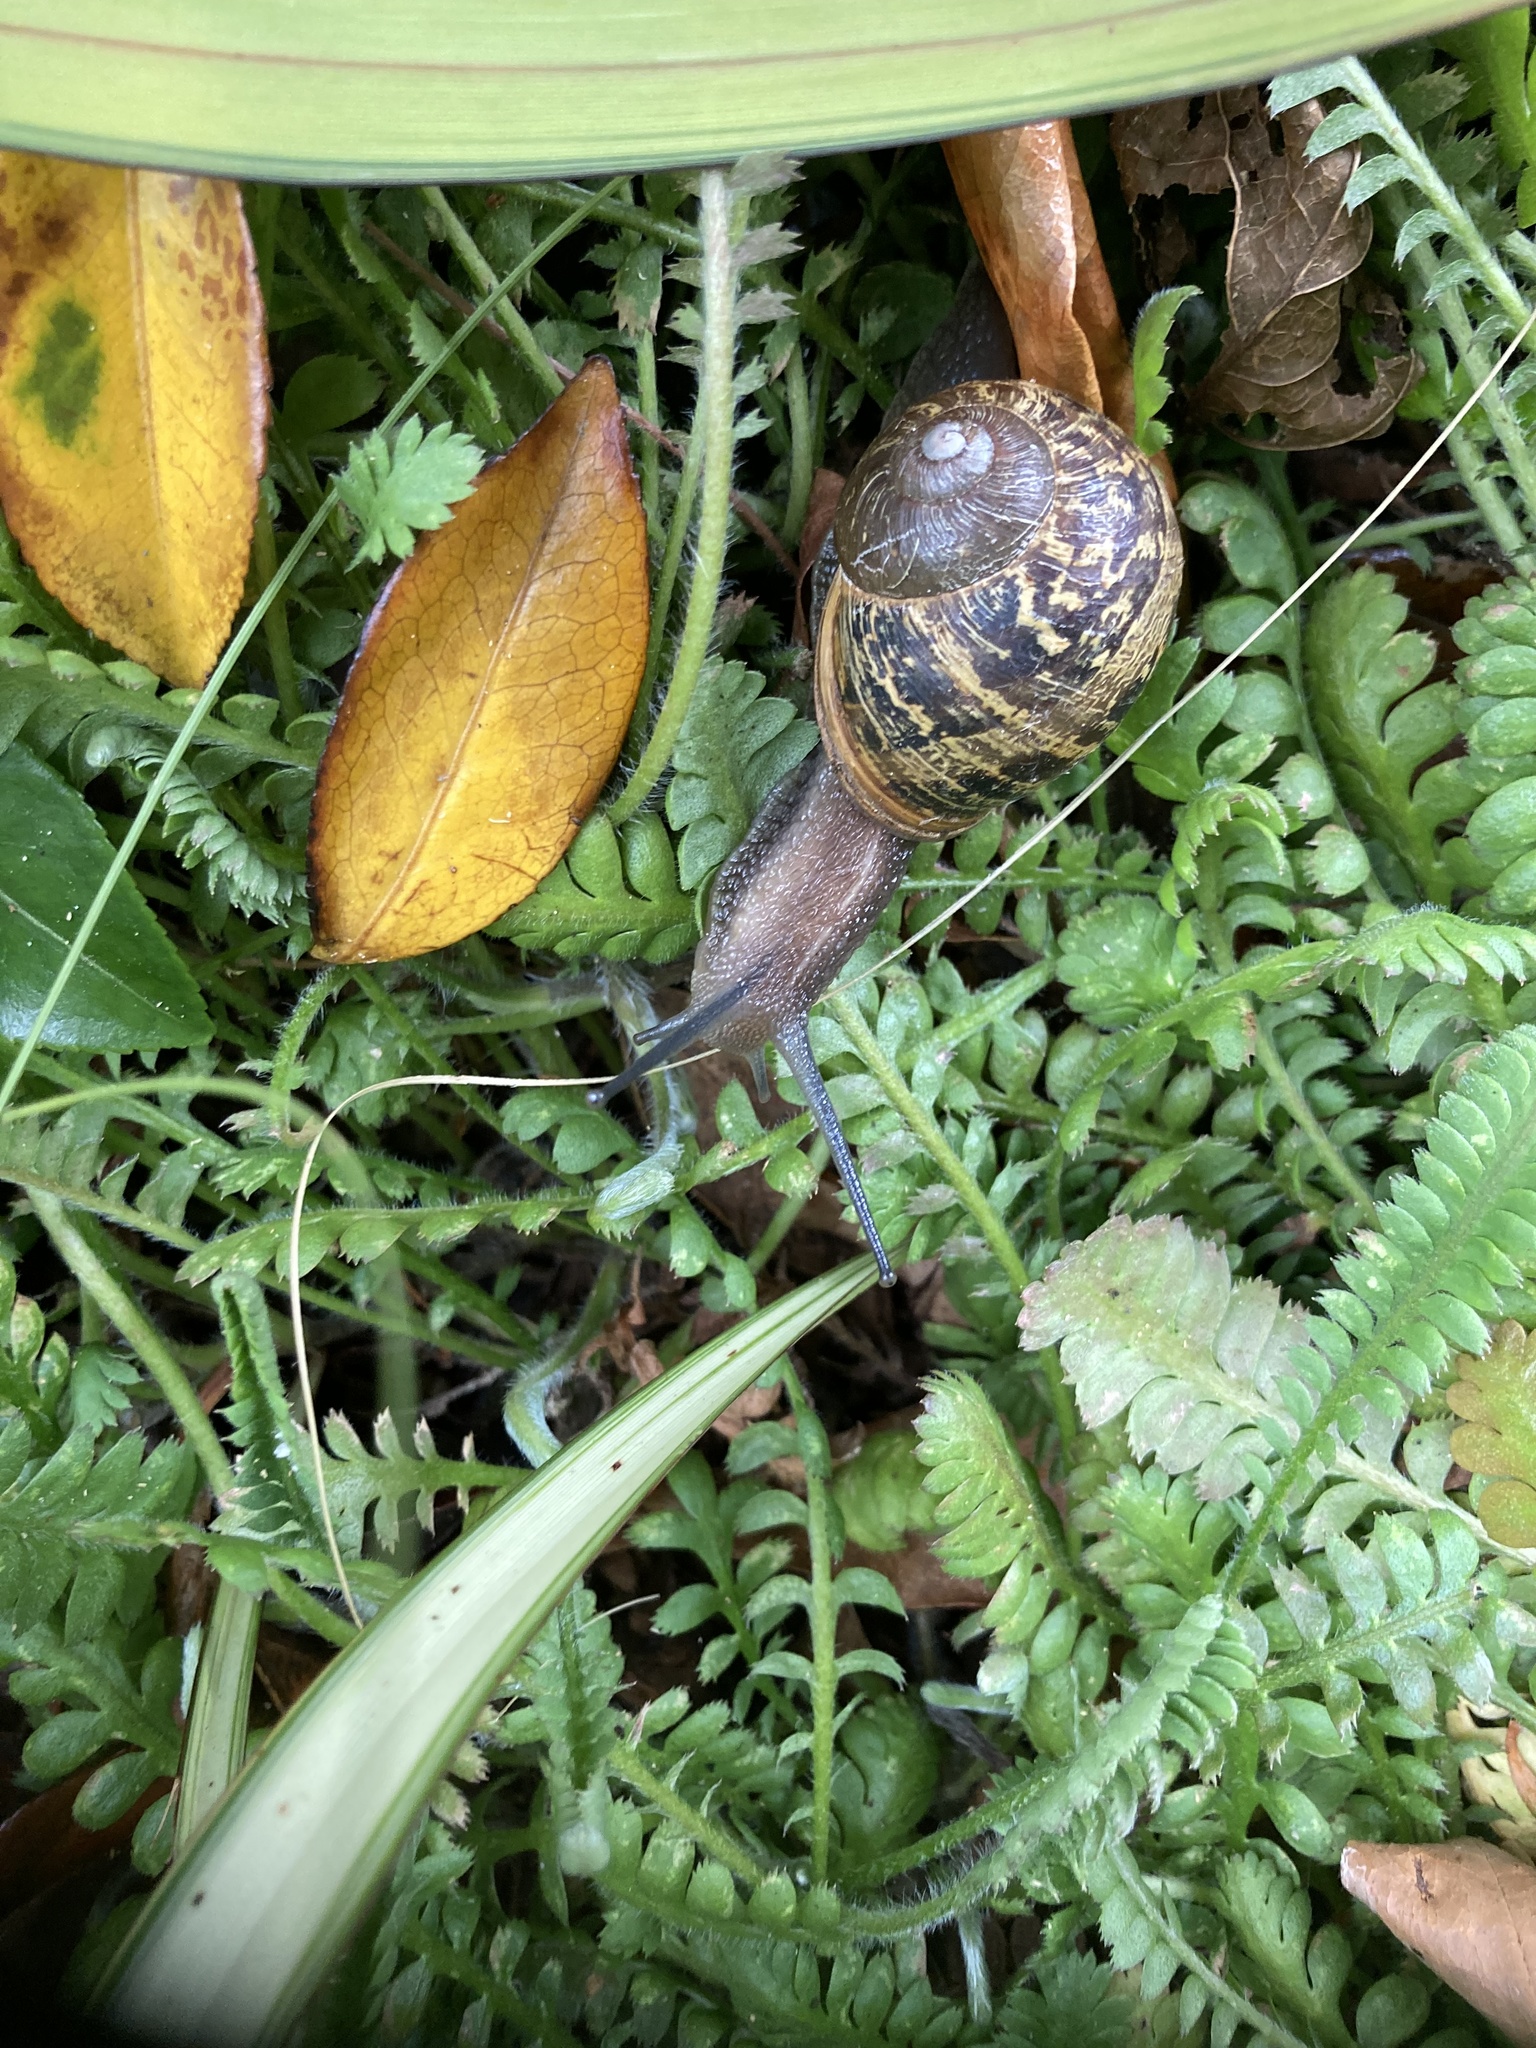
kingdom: Animalia
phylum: Mollusca
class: Gastropoda
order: Stylommatophora
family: Helicidae
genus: Cornu
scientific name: Cornu aspersum
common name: Brown garden snail
